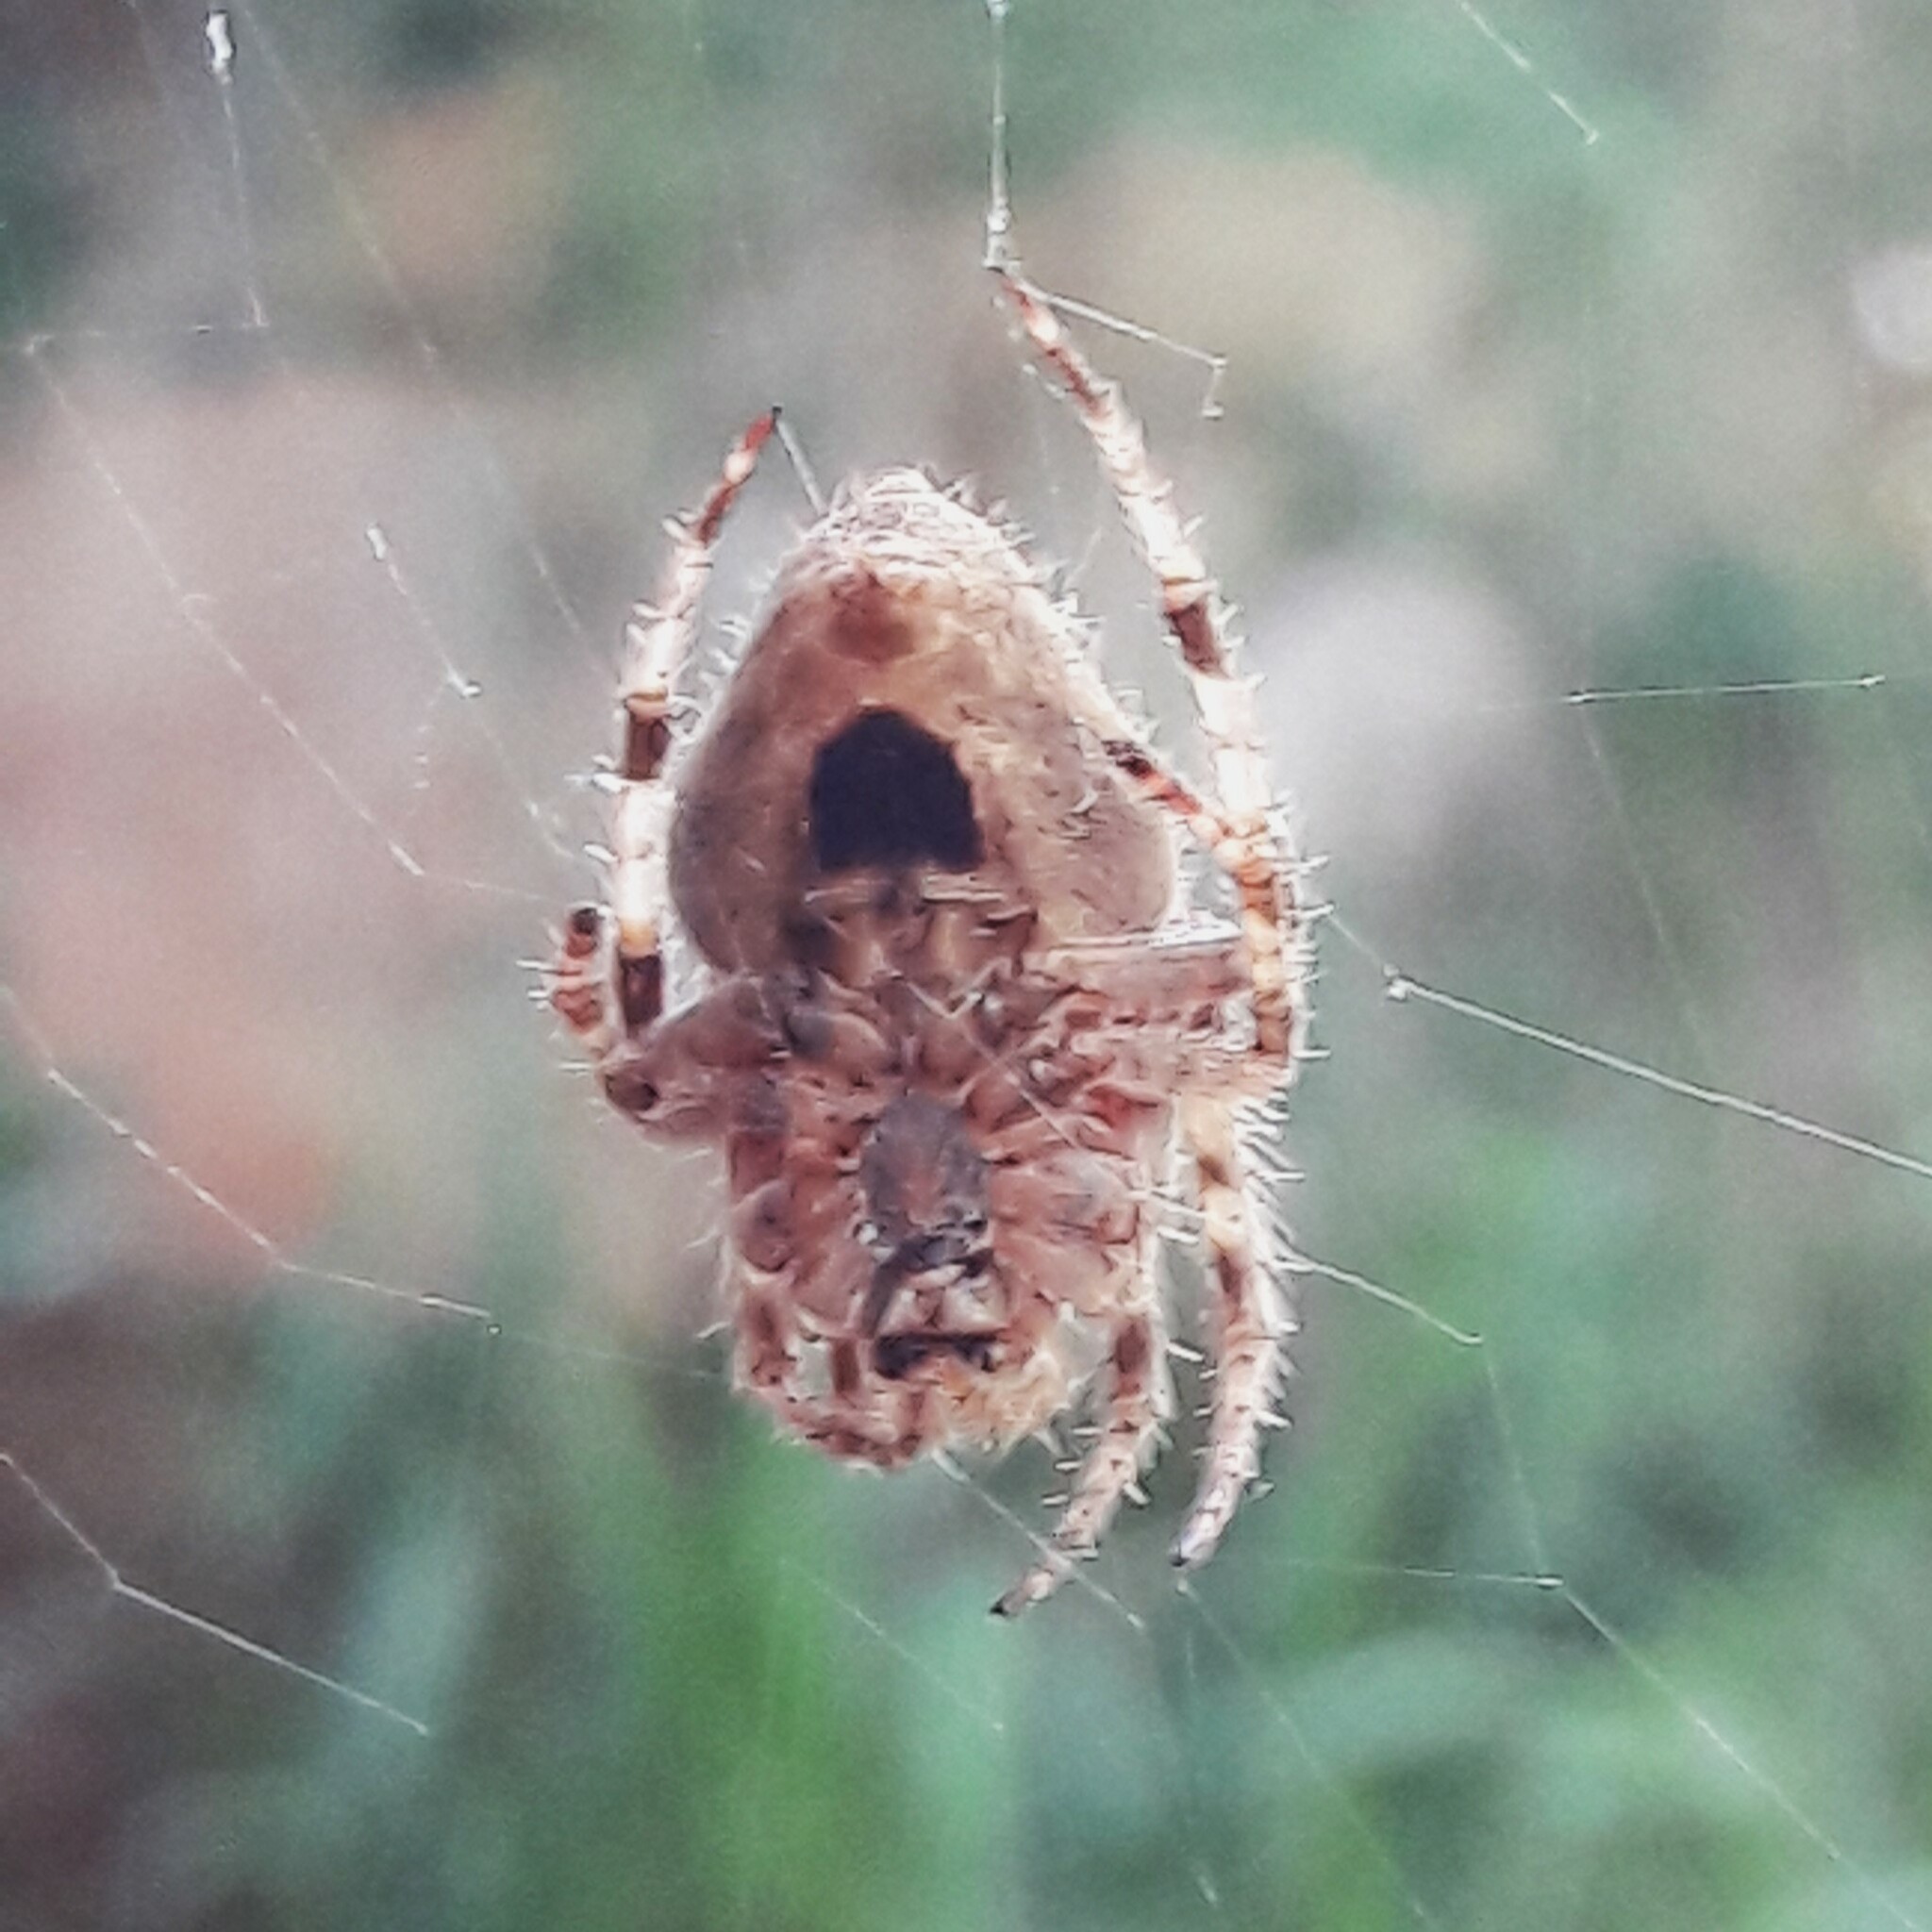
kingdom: Animalia
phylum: Arthropoda
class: Arachnida
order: Araneae
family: Araneidae
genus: Eriophora
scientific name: Eriophora edax
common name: Orb weavers
